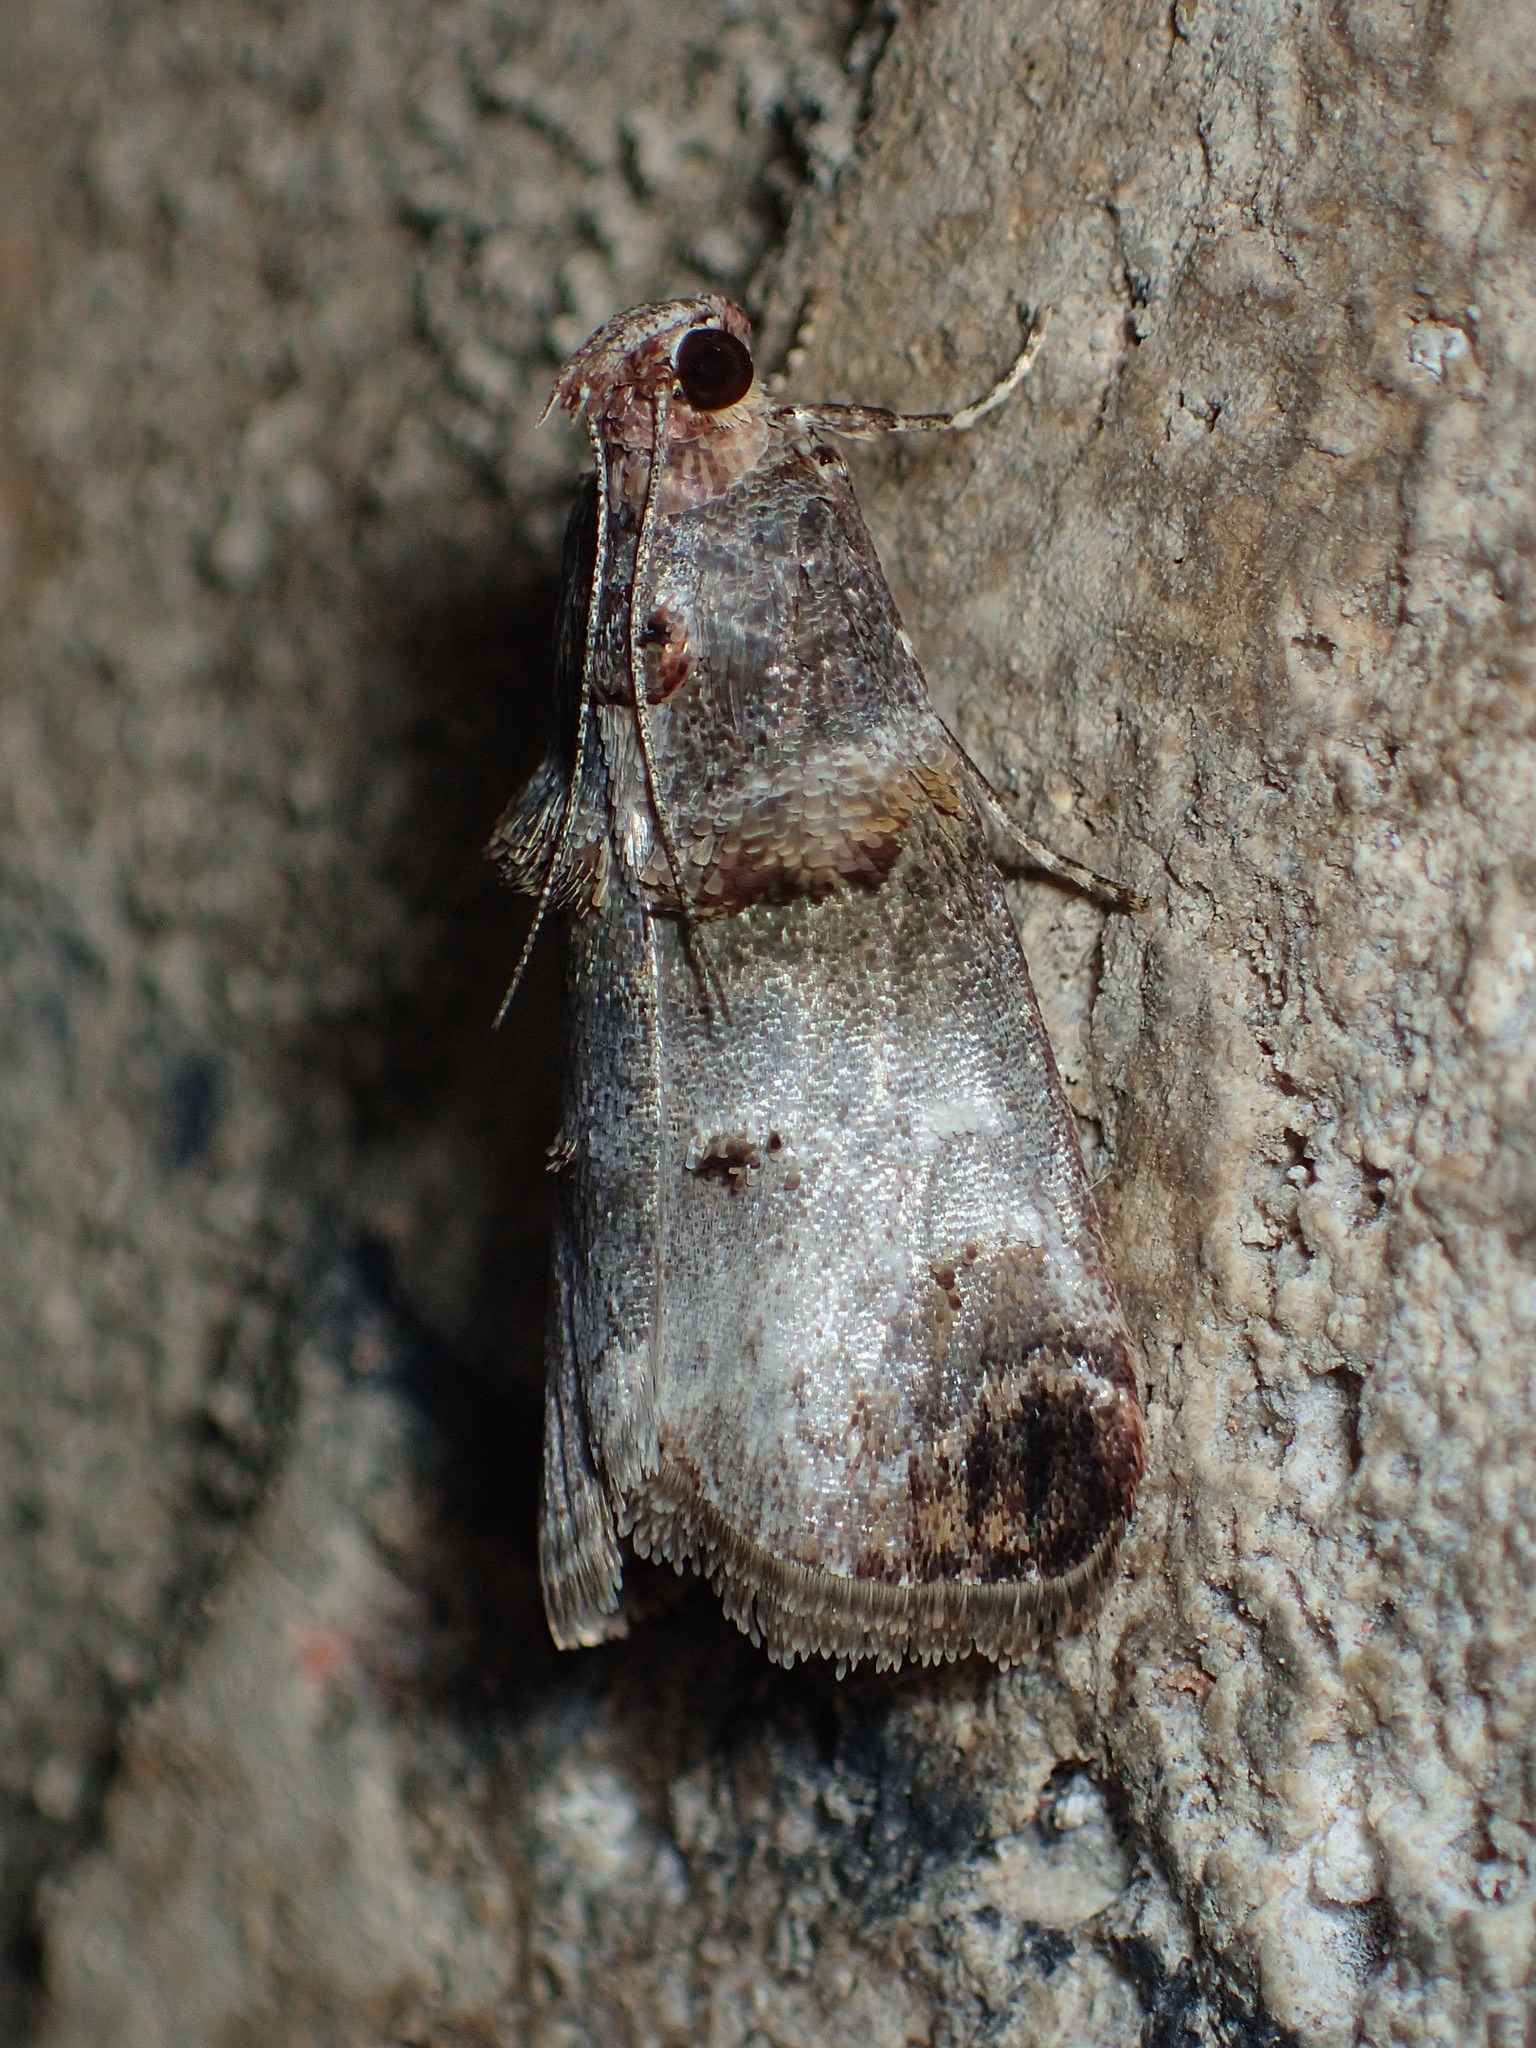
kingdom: Animalia
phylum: Arthropoda
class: Insecta
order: Lepidoptera
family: Pyralidae
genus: Oneida
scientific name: Oneida lunulalis
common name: Orange-tufted oneida moth
